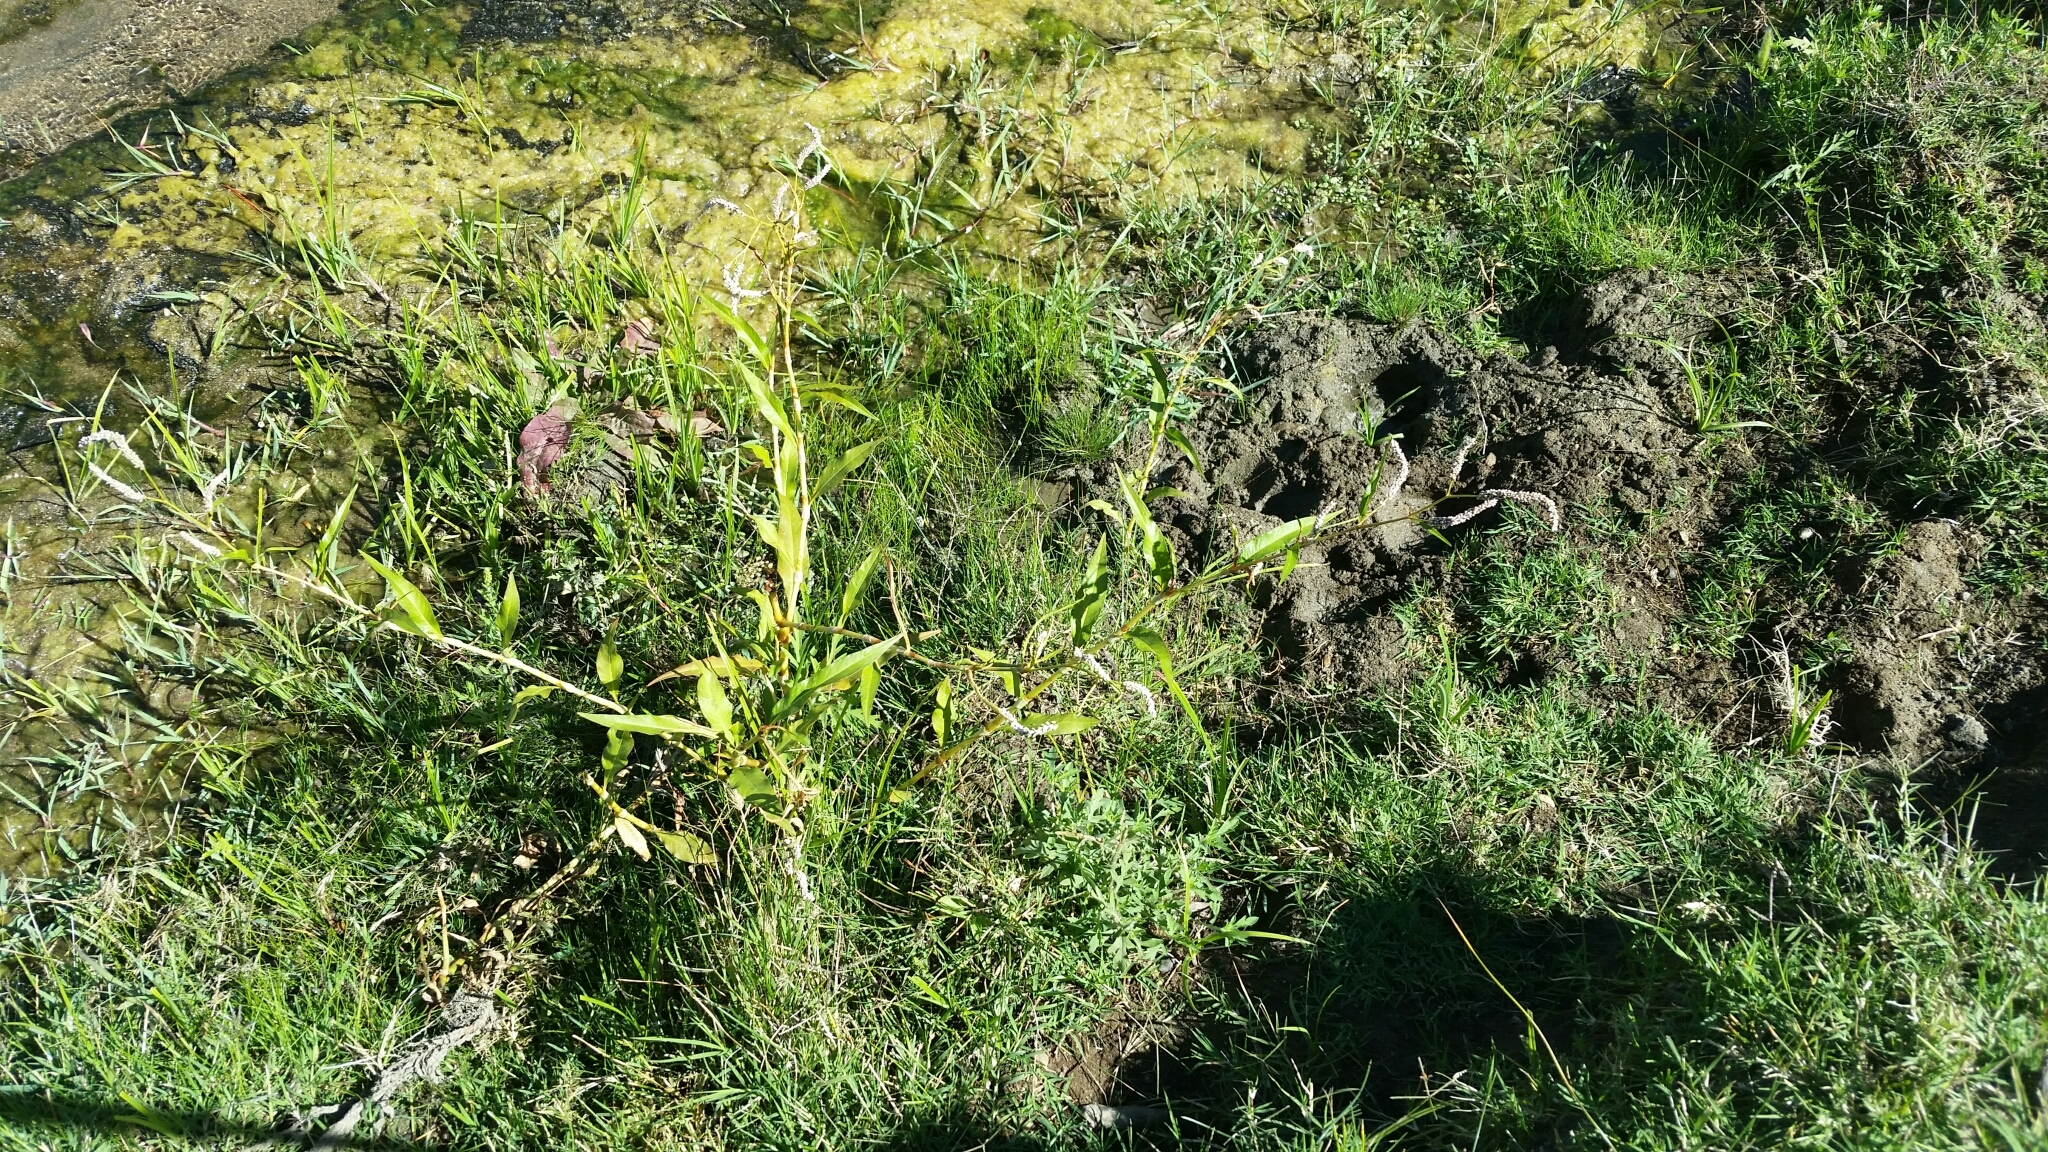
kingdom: Plantae
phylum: Tracheophyta
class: Magnoliopsida
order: Caryophyllales
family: Polygonaceae
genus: Persicaria
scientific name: Persicaria lapathifolia
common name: Curlytop knotweed
